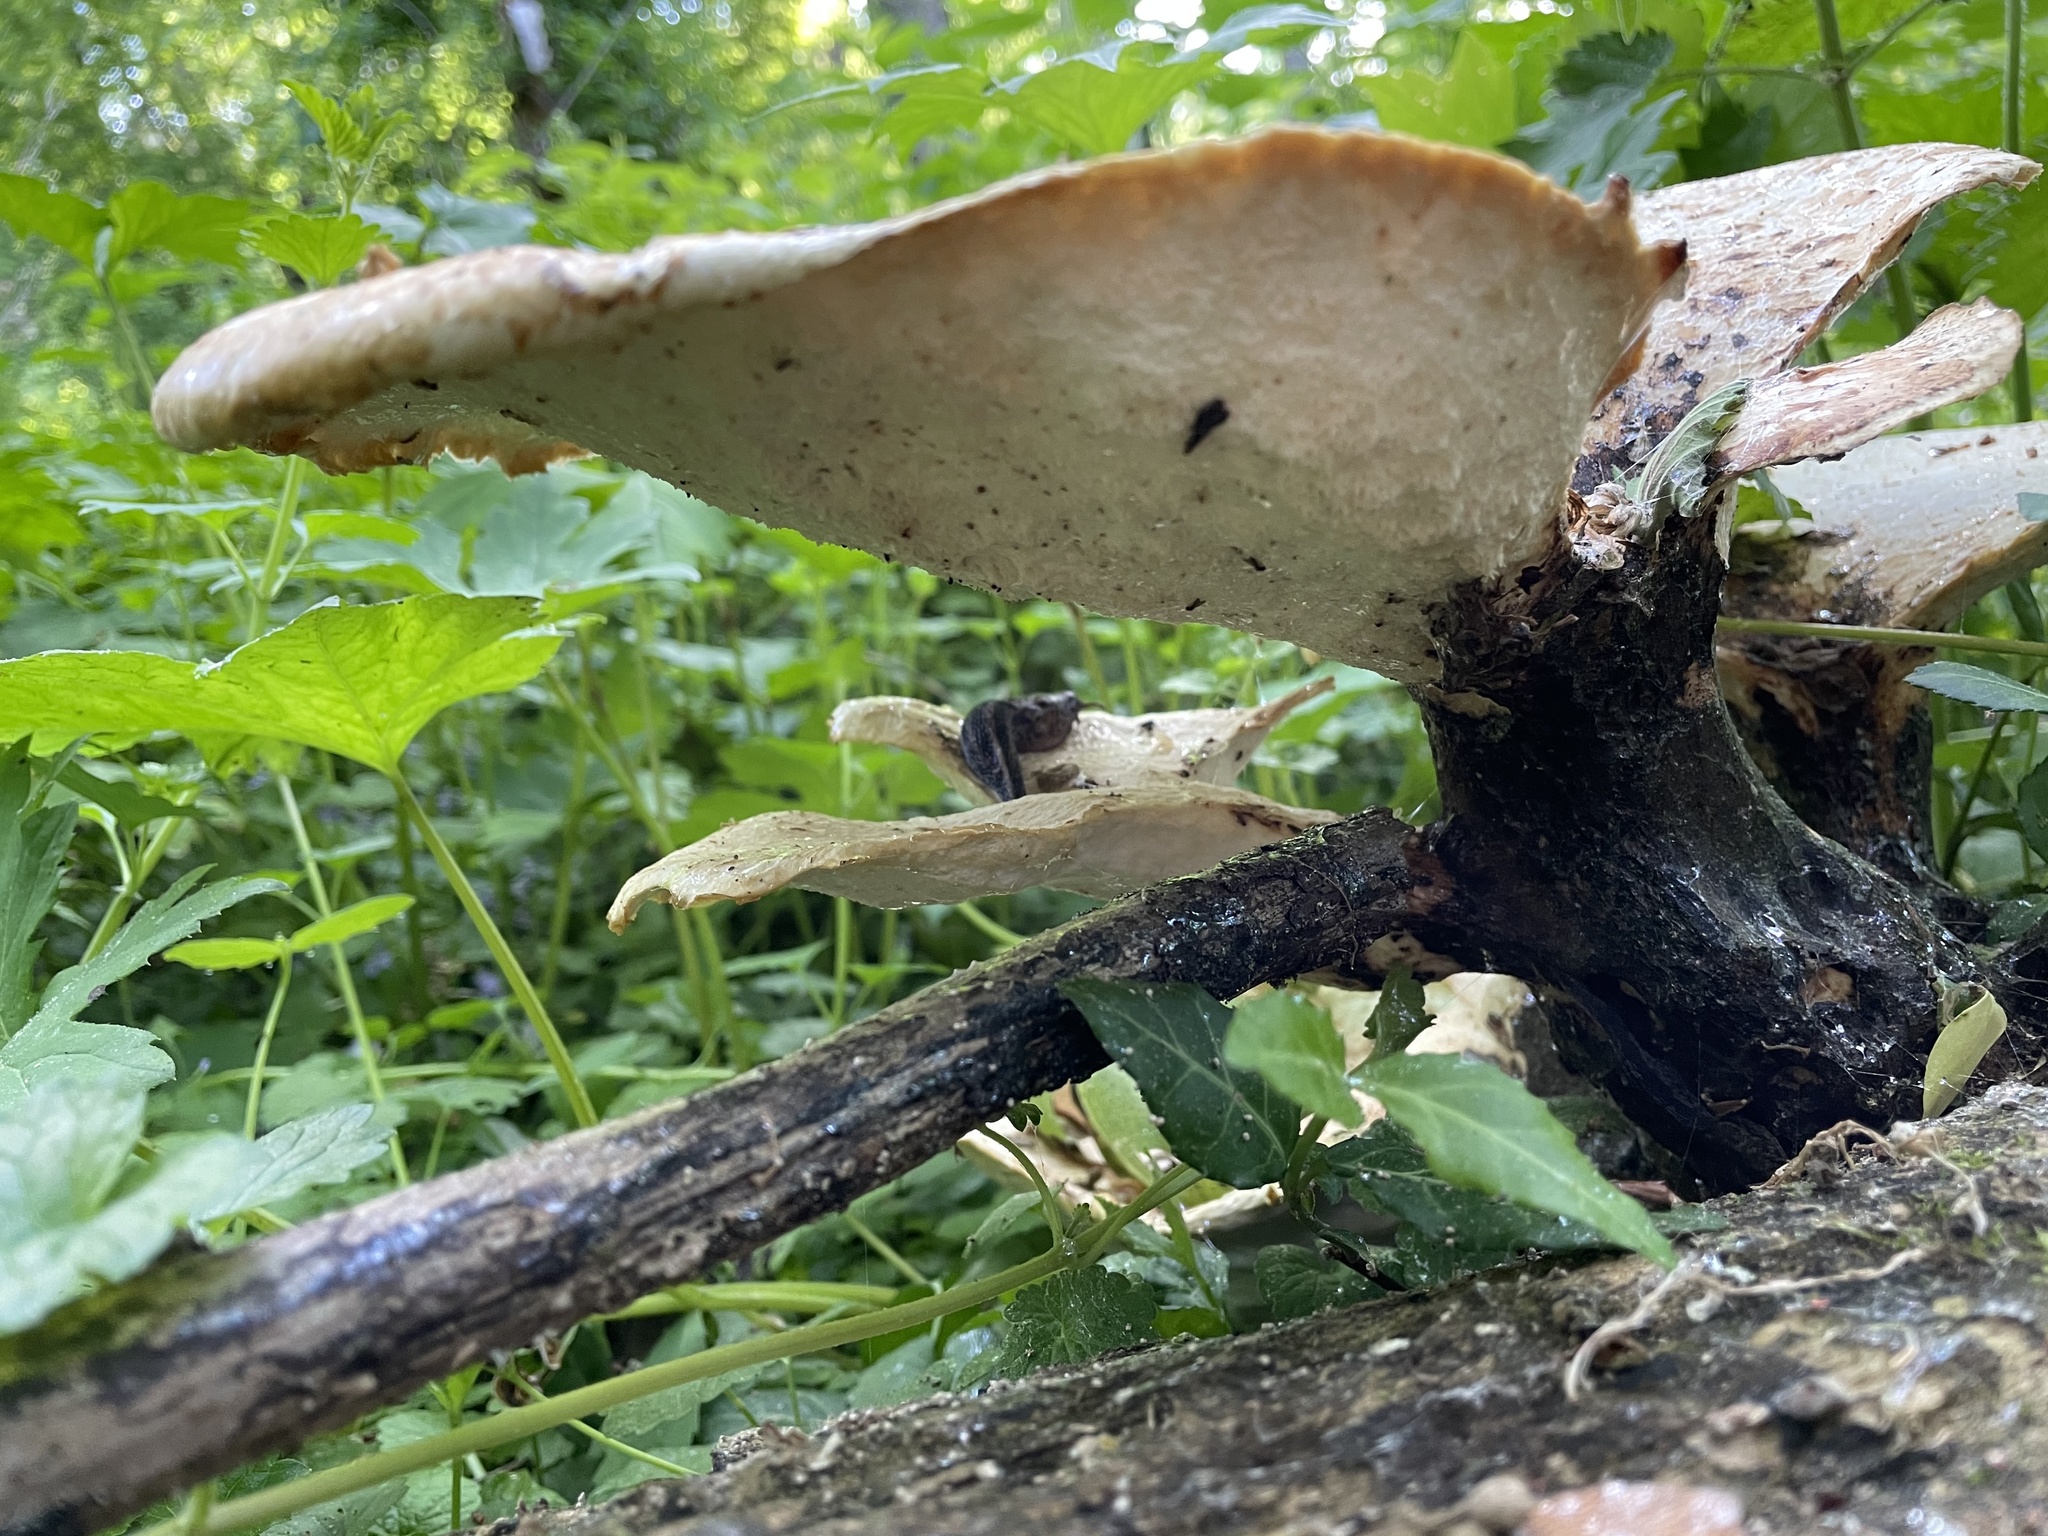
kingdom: Fungi
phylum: Basidiomycota
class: Agaricomycetes
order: Polyporales
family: Polyporaceae
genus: Cerioporus
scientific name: Cerioporus squamosus
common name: Dryad's saddle
